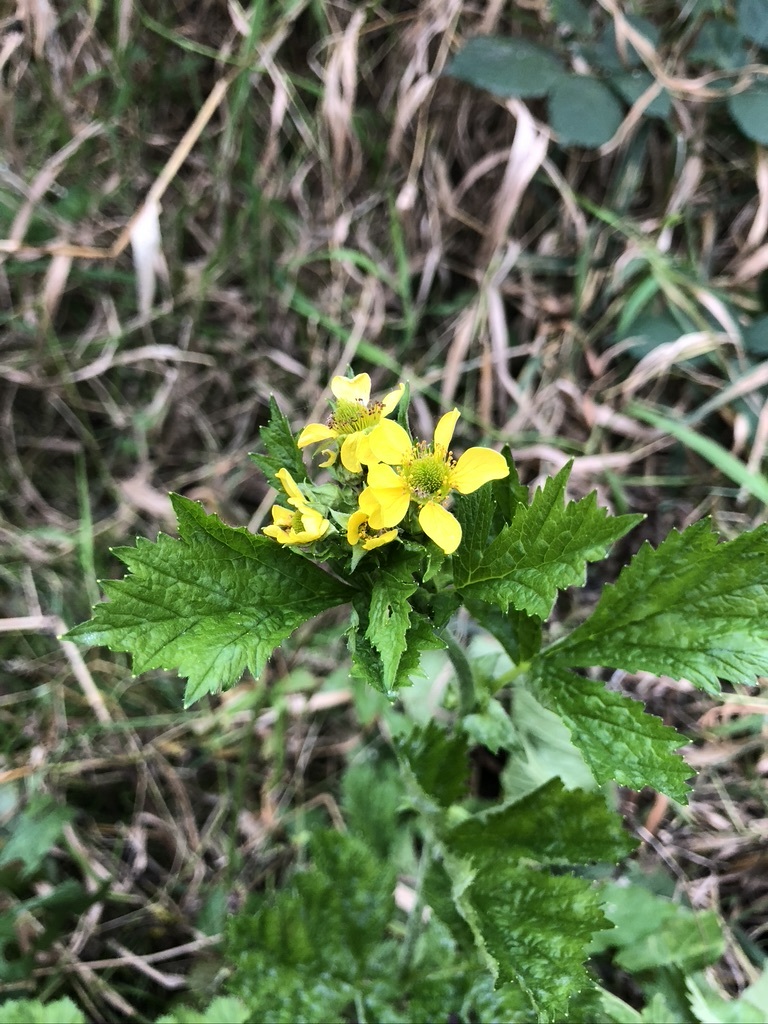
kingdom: Plantae
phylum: Tracheophyta
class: Magnoliopsida
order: Rosales
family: Rosaceae
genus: Geum
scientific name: Geum macrophyllum
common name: Large-leaved avens
